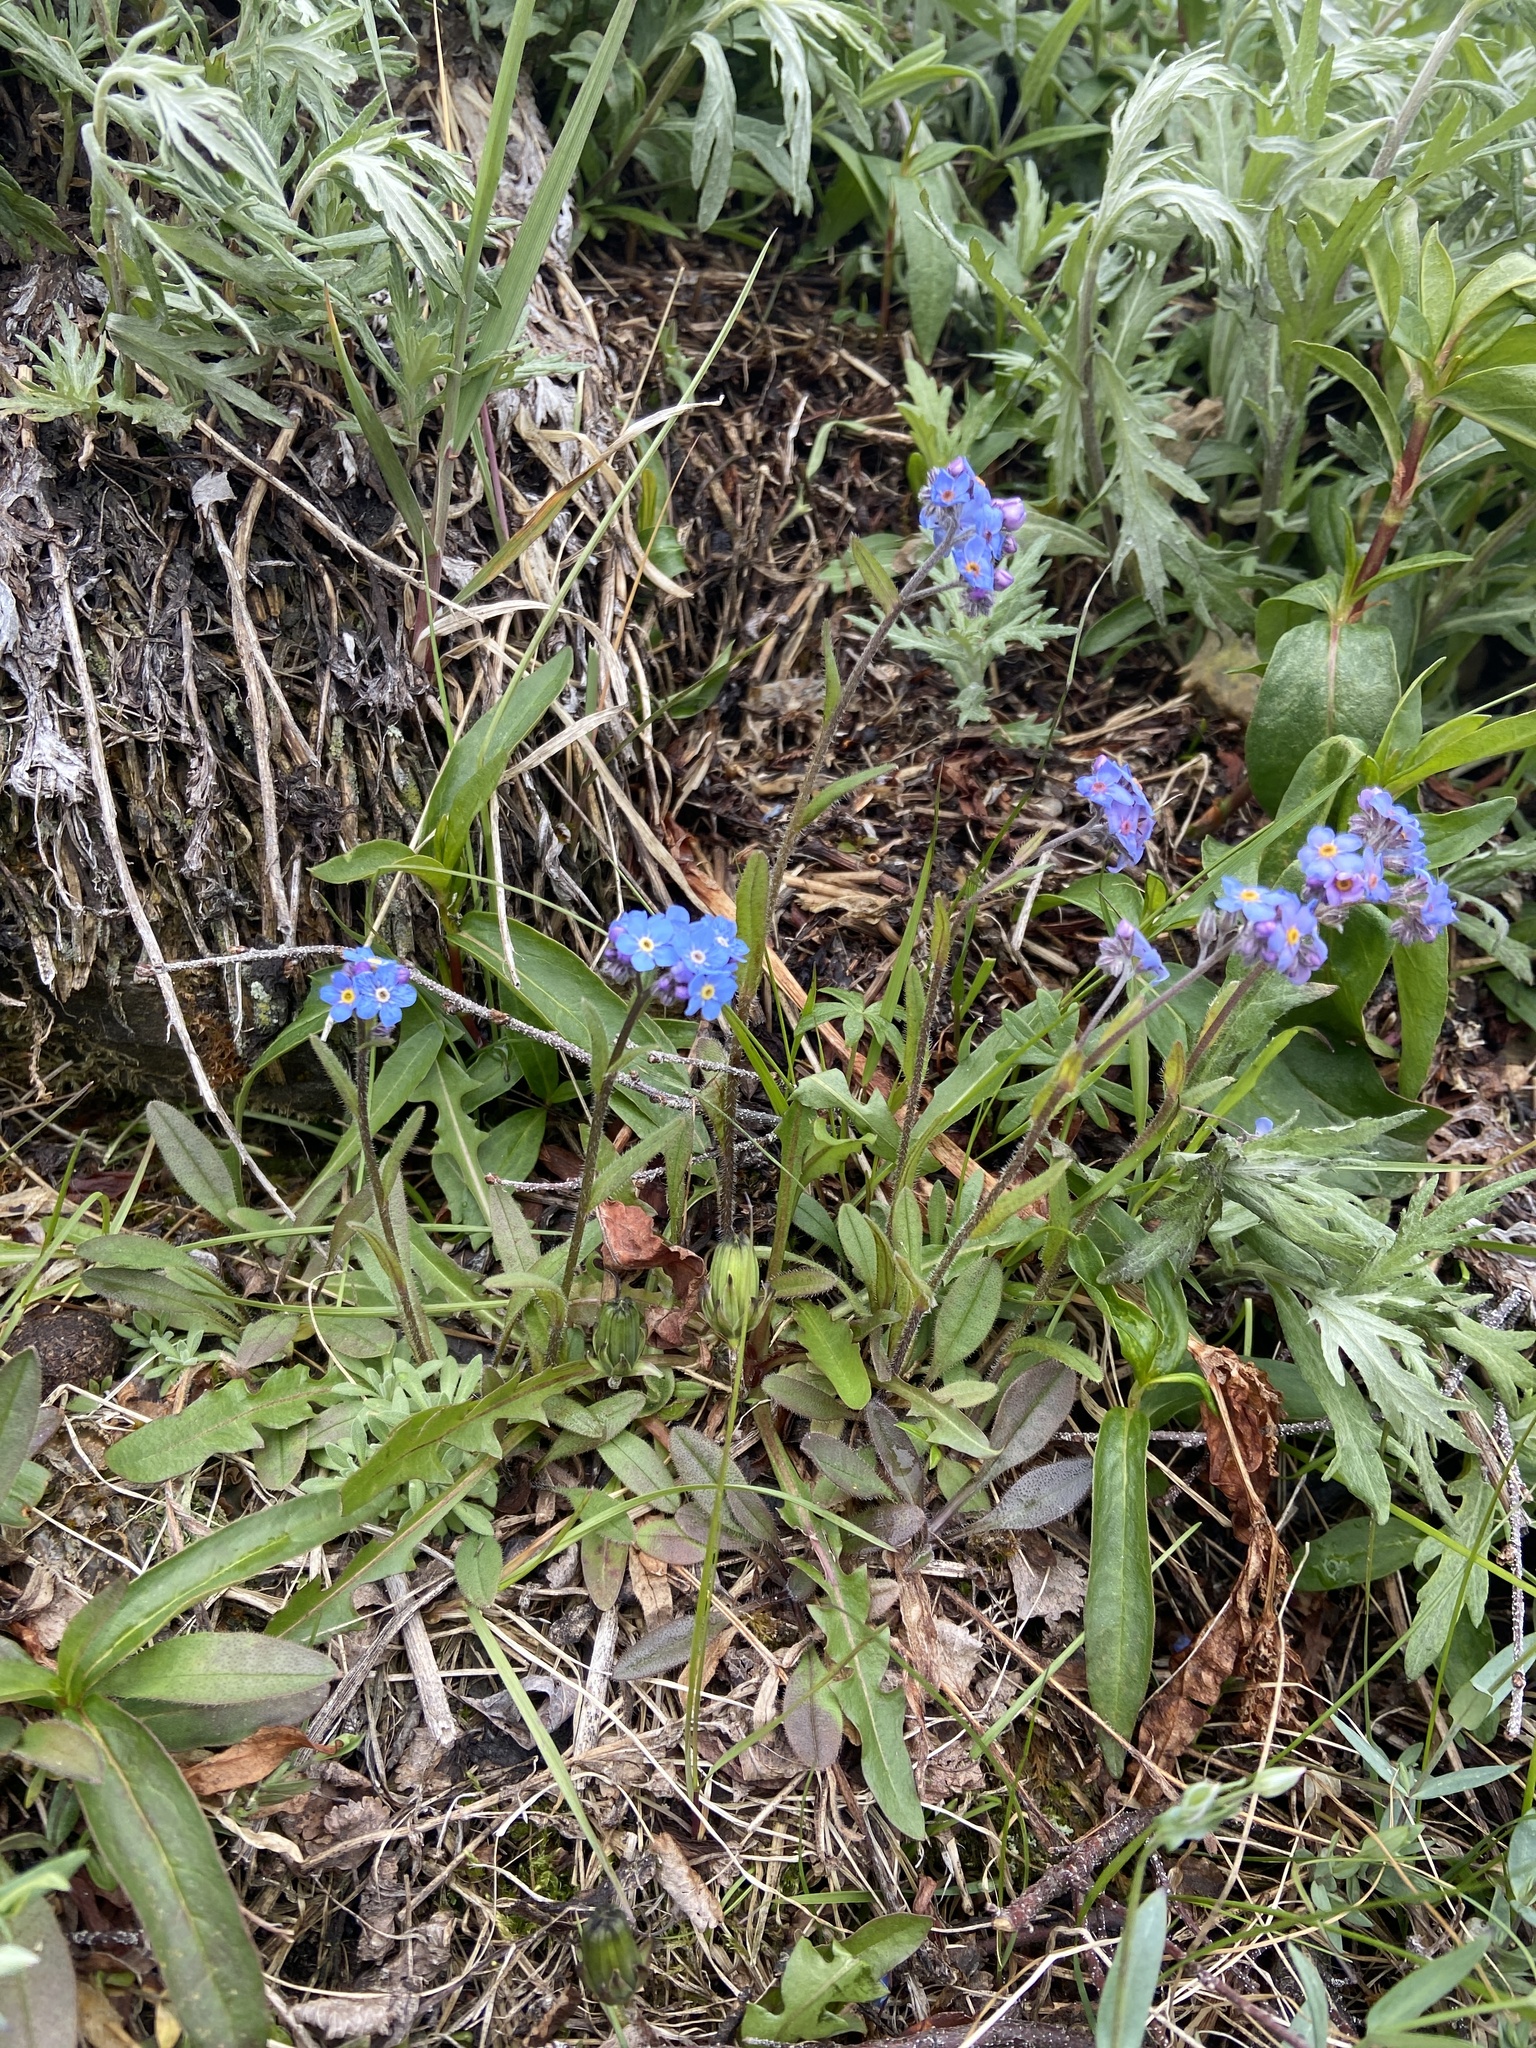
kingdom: Plantae
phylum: Tracheophyta
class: Magnoliopsida
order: Boraginales
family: Boraginaceae
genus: Myosotis
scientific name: Myosotis asiatica
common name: Asian forget-me-not
